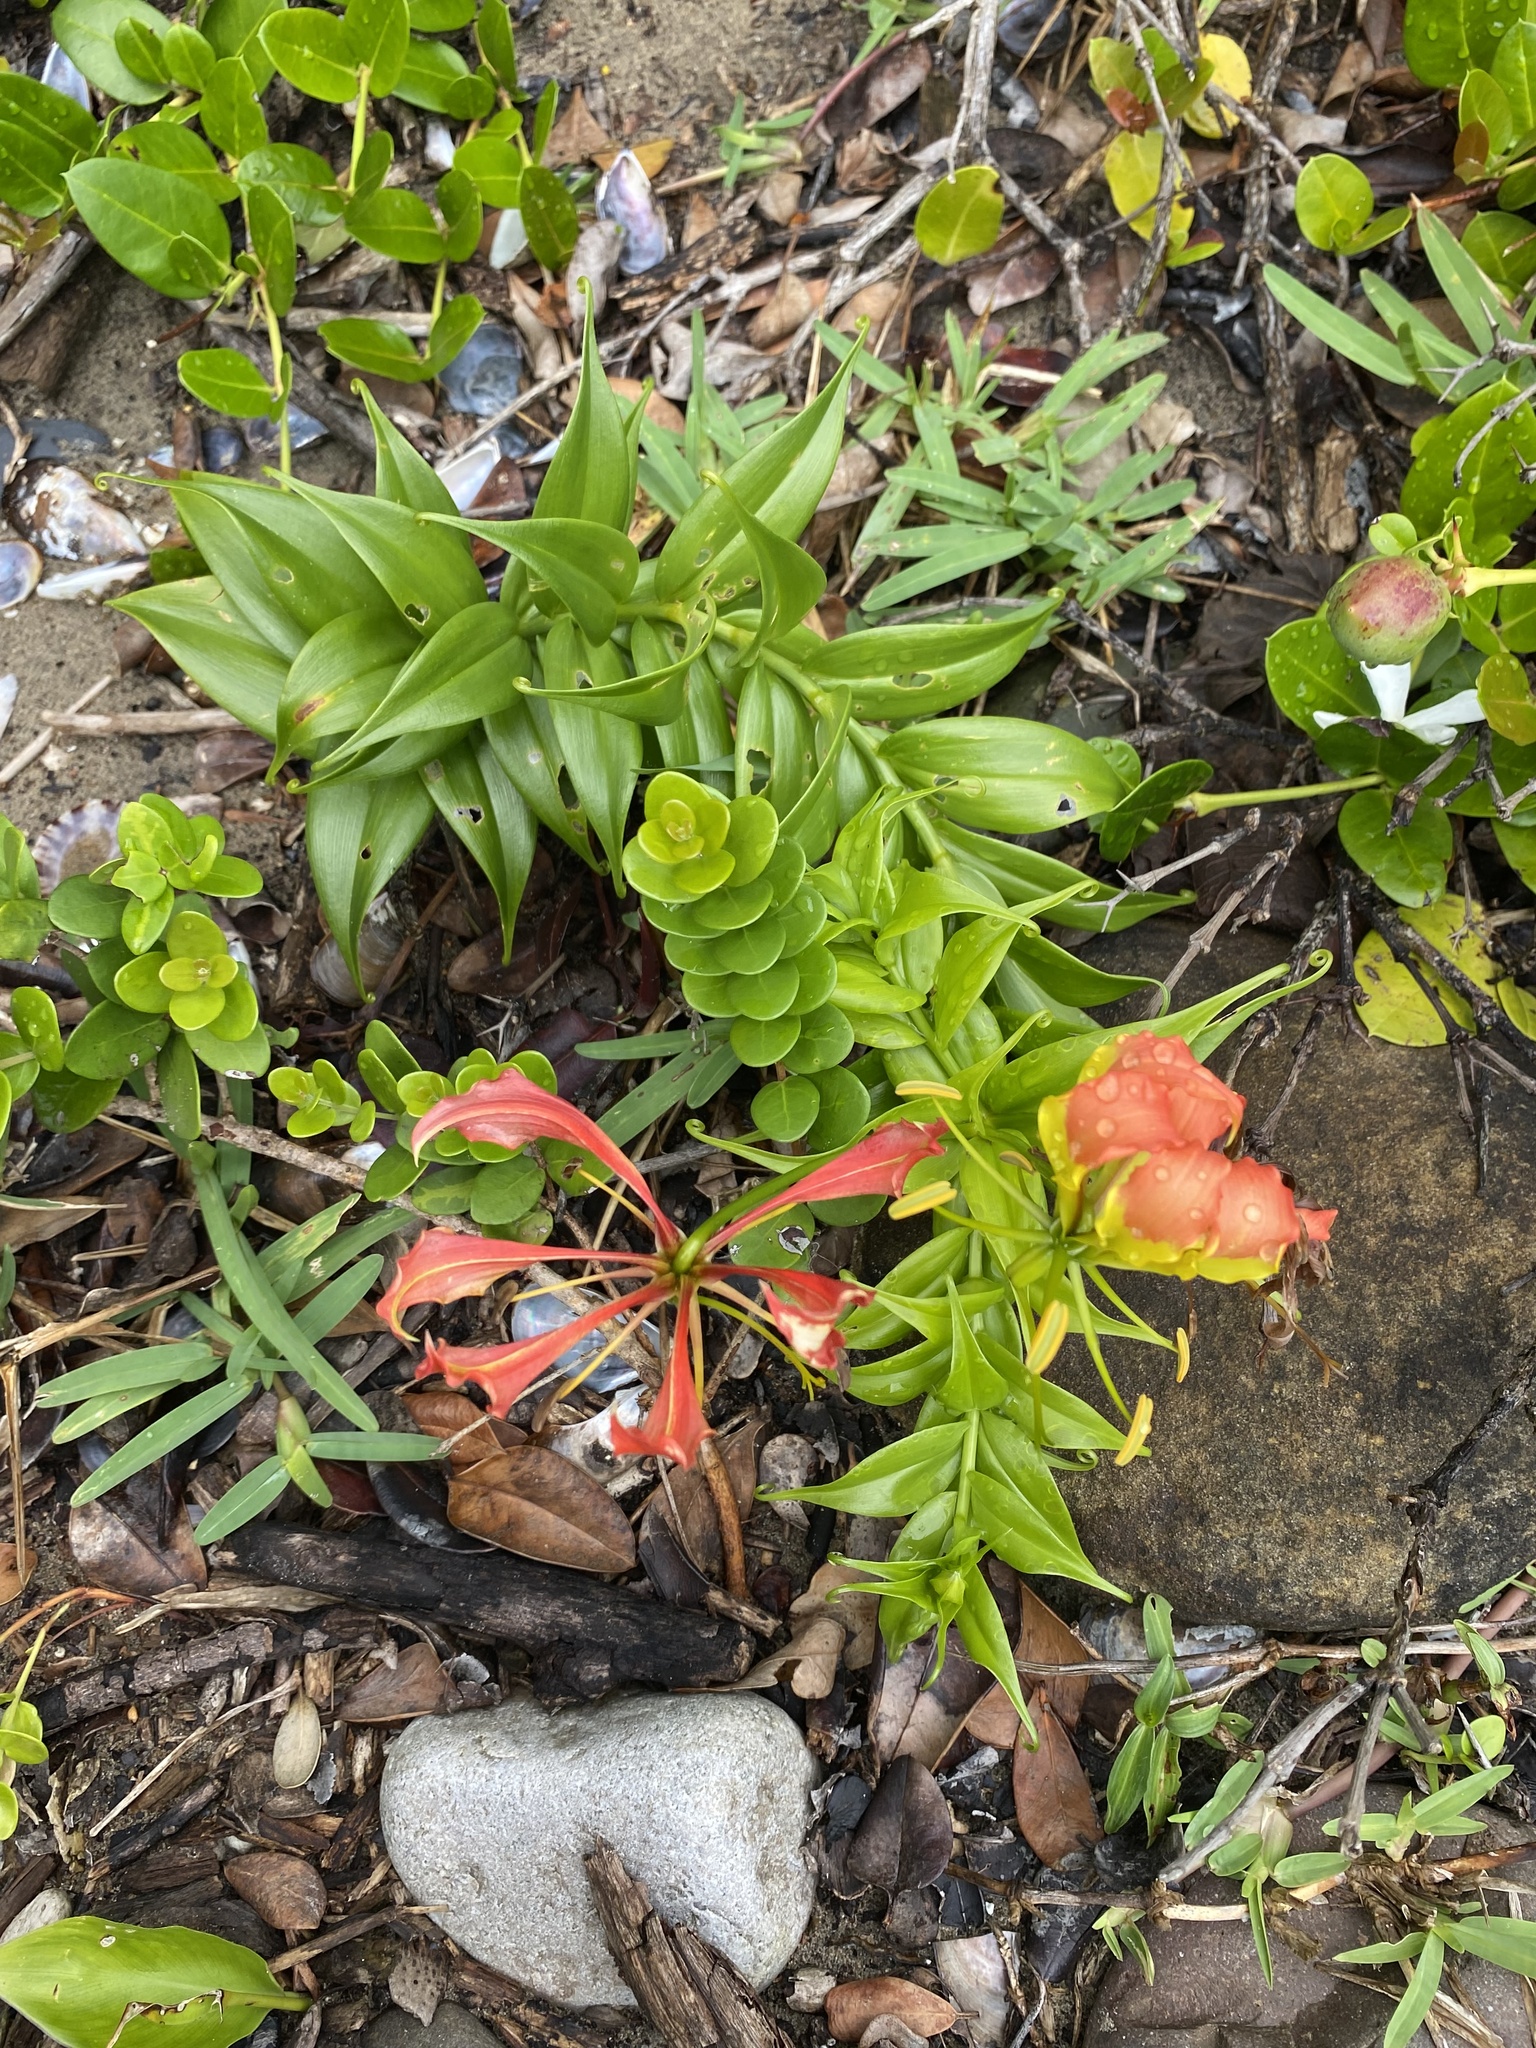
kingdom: Plantae
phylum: Tracheophyta
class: Liliopsida
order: Liliales
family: Colchicaceae
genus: Gloriosa
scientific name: Gloriosa superba
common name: Flame lily
